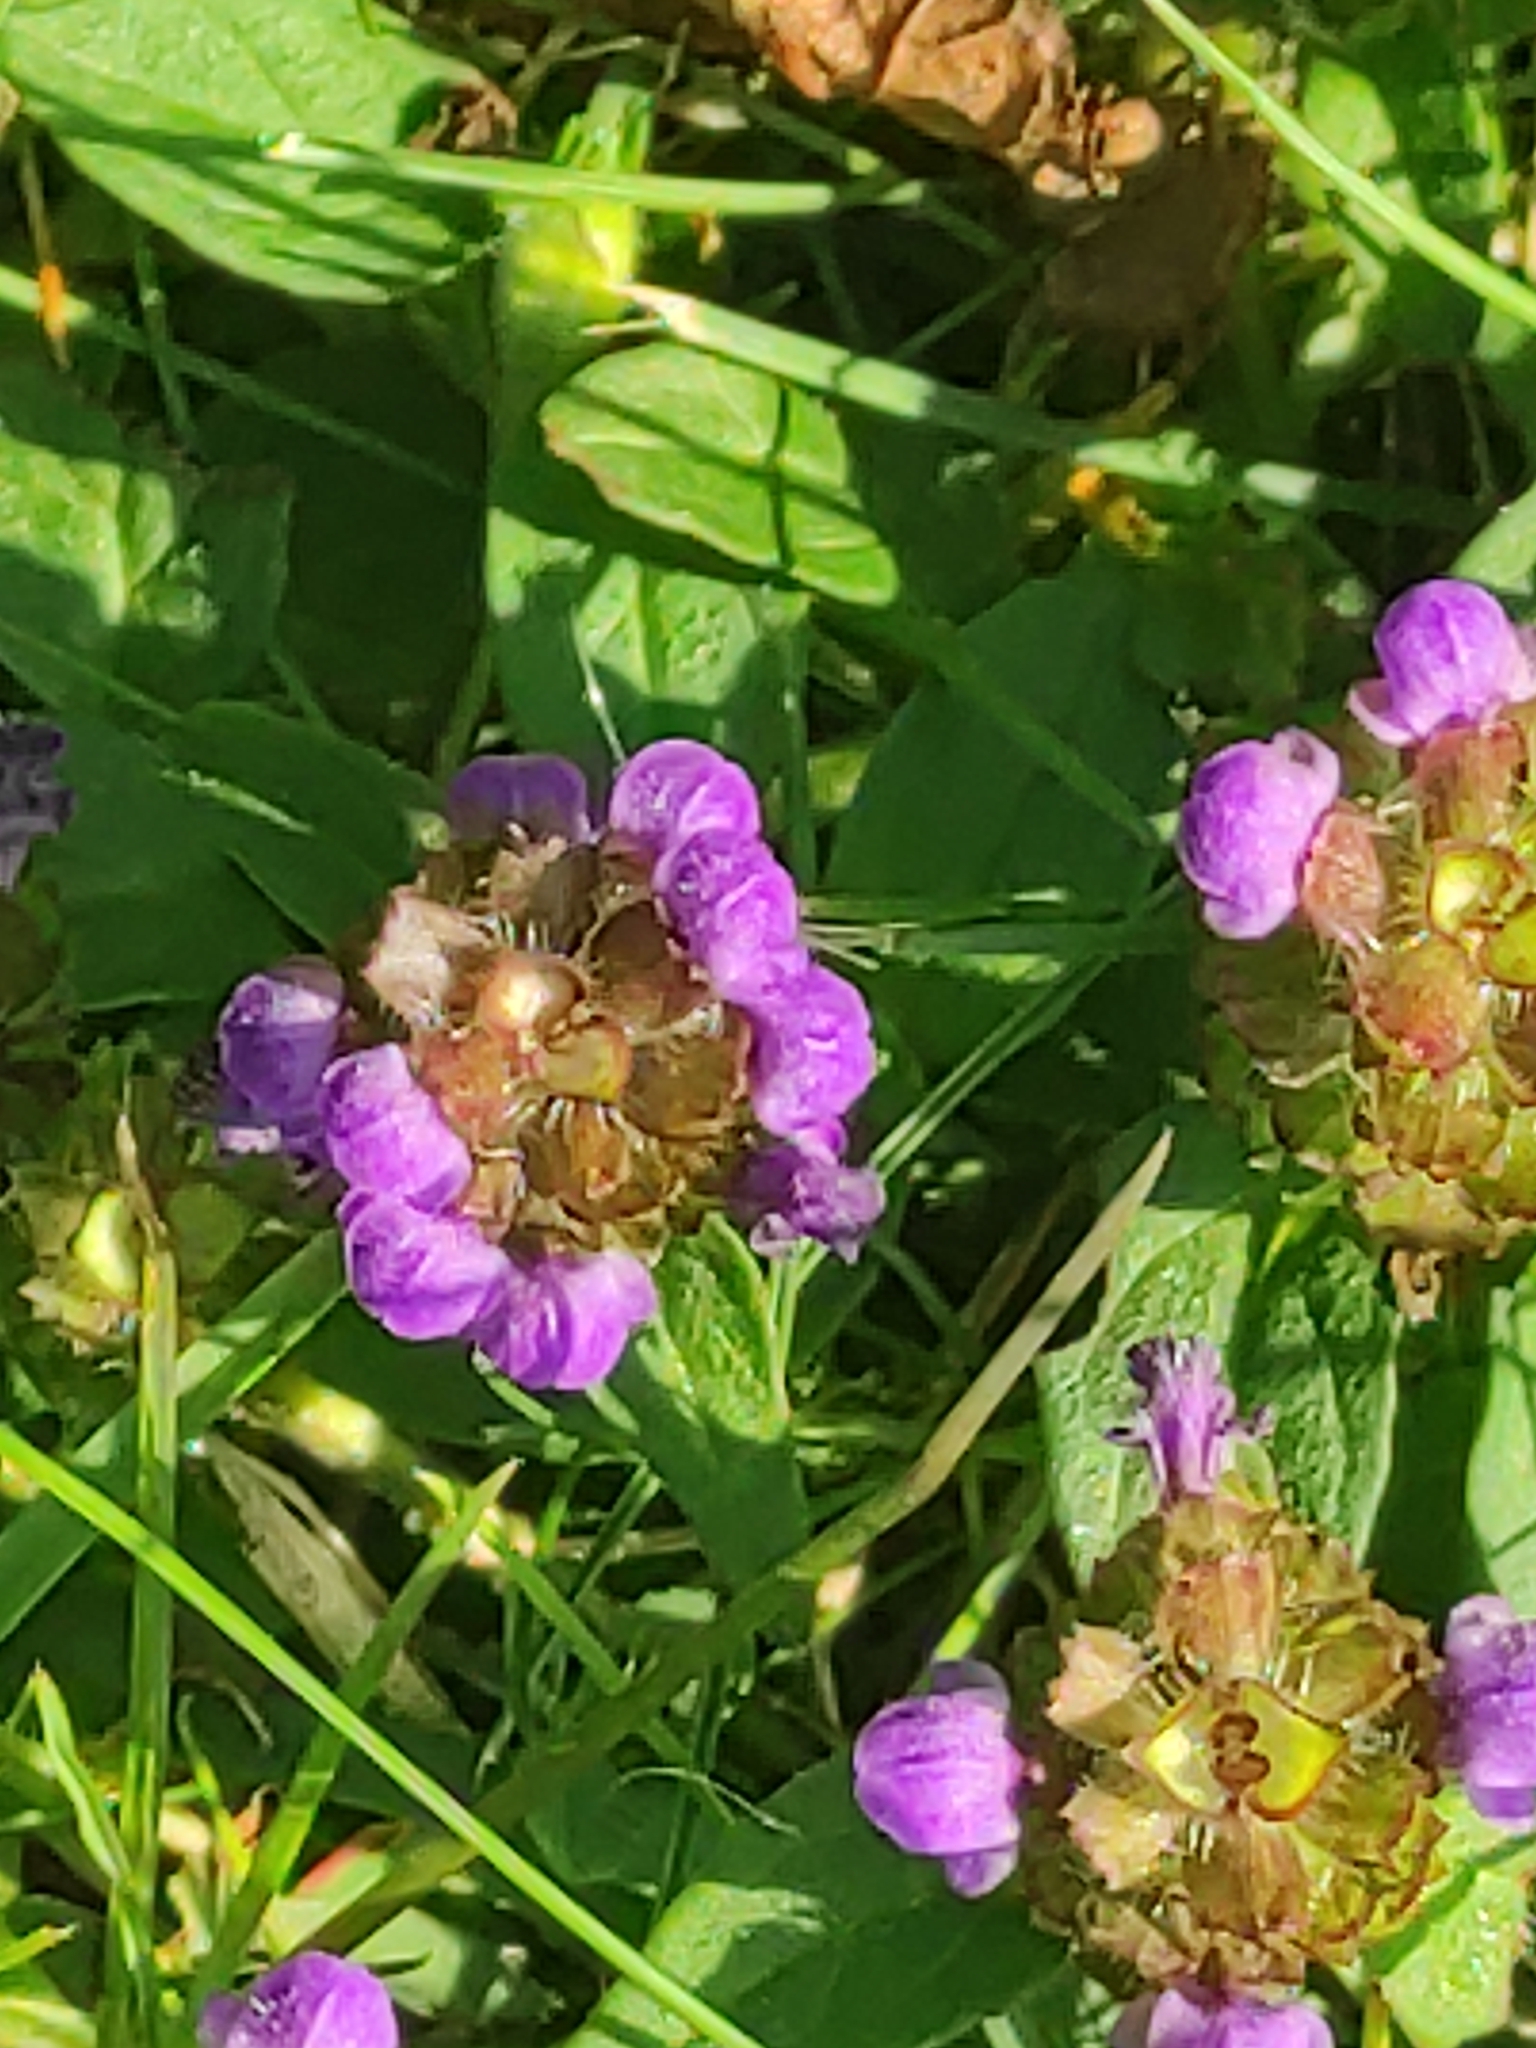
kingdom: Plantae
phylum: Tracheophyta
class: Magnoliopsida
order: Lamiales
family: Lamiaceae
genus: Prunella
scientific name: Prunella vulgaris
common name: Heal-all
